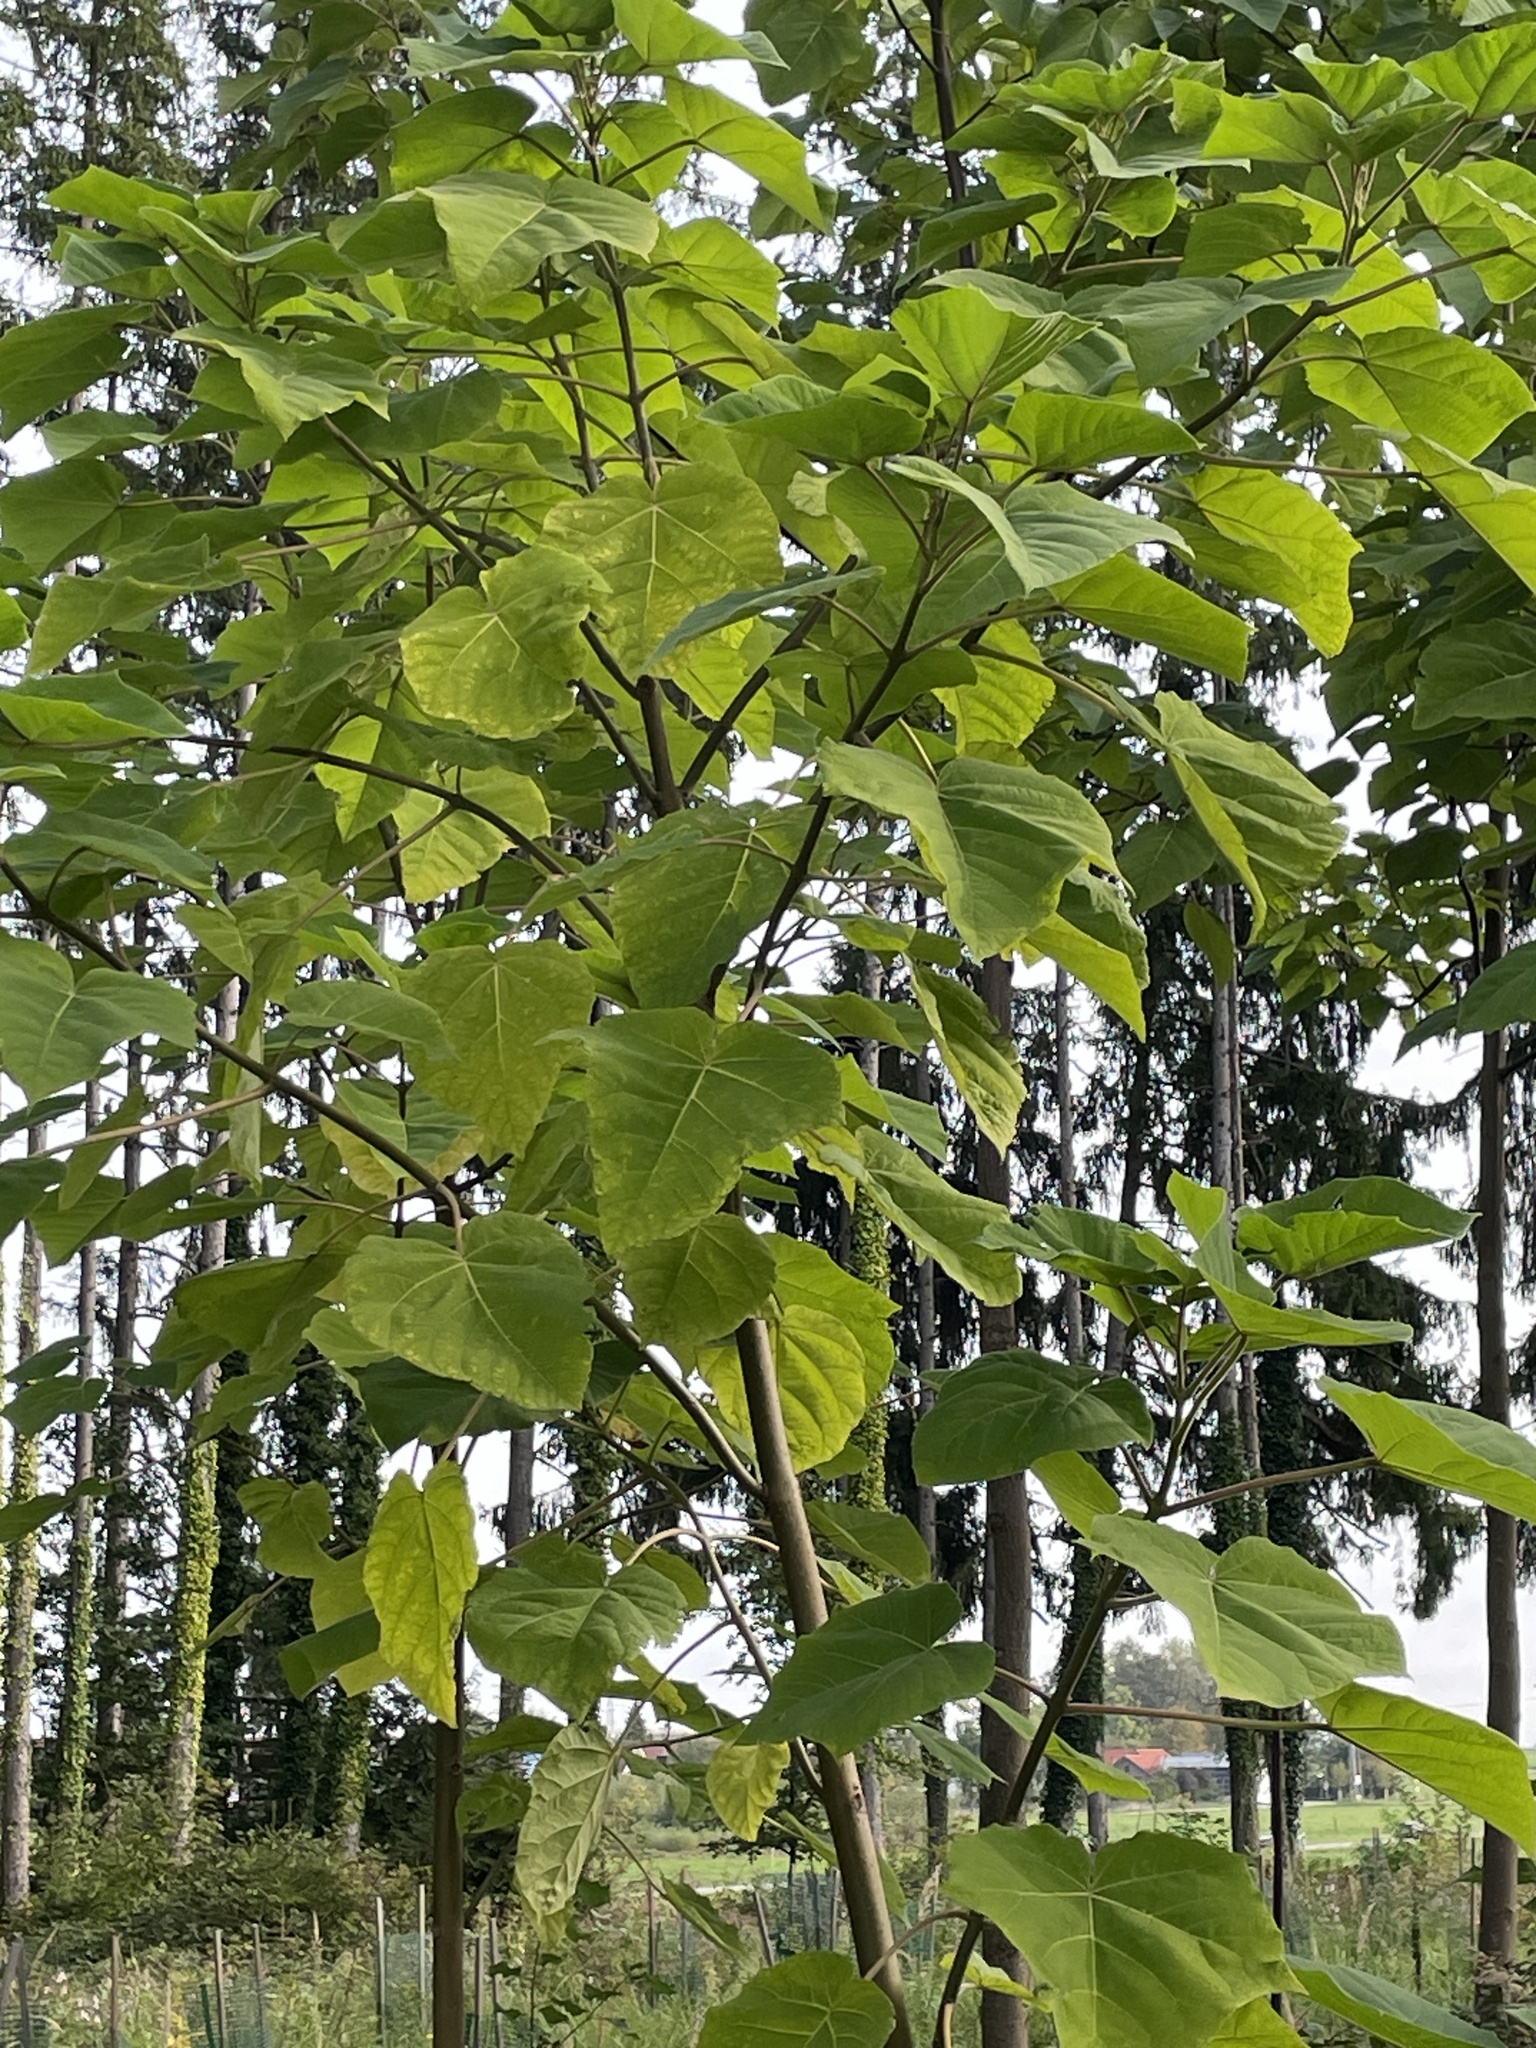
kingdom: Plantae
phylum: Tracheophyta
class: Magnoliopsida
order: Lamiales
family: Paulowniaceae
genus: Paulownia
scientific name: Paulownia tomentosa
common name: Foxglove-tree
